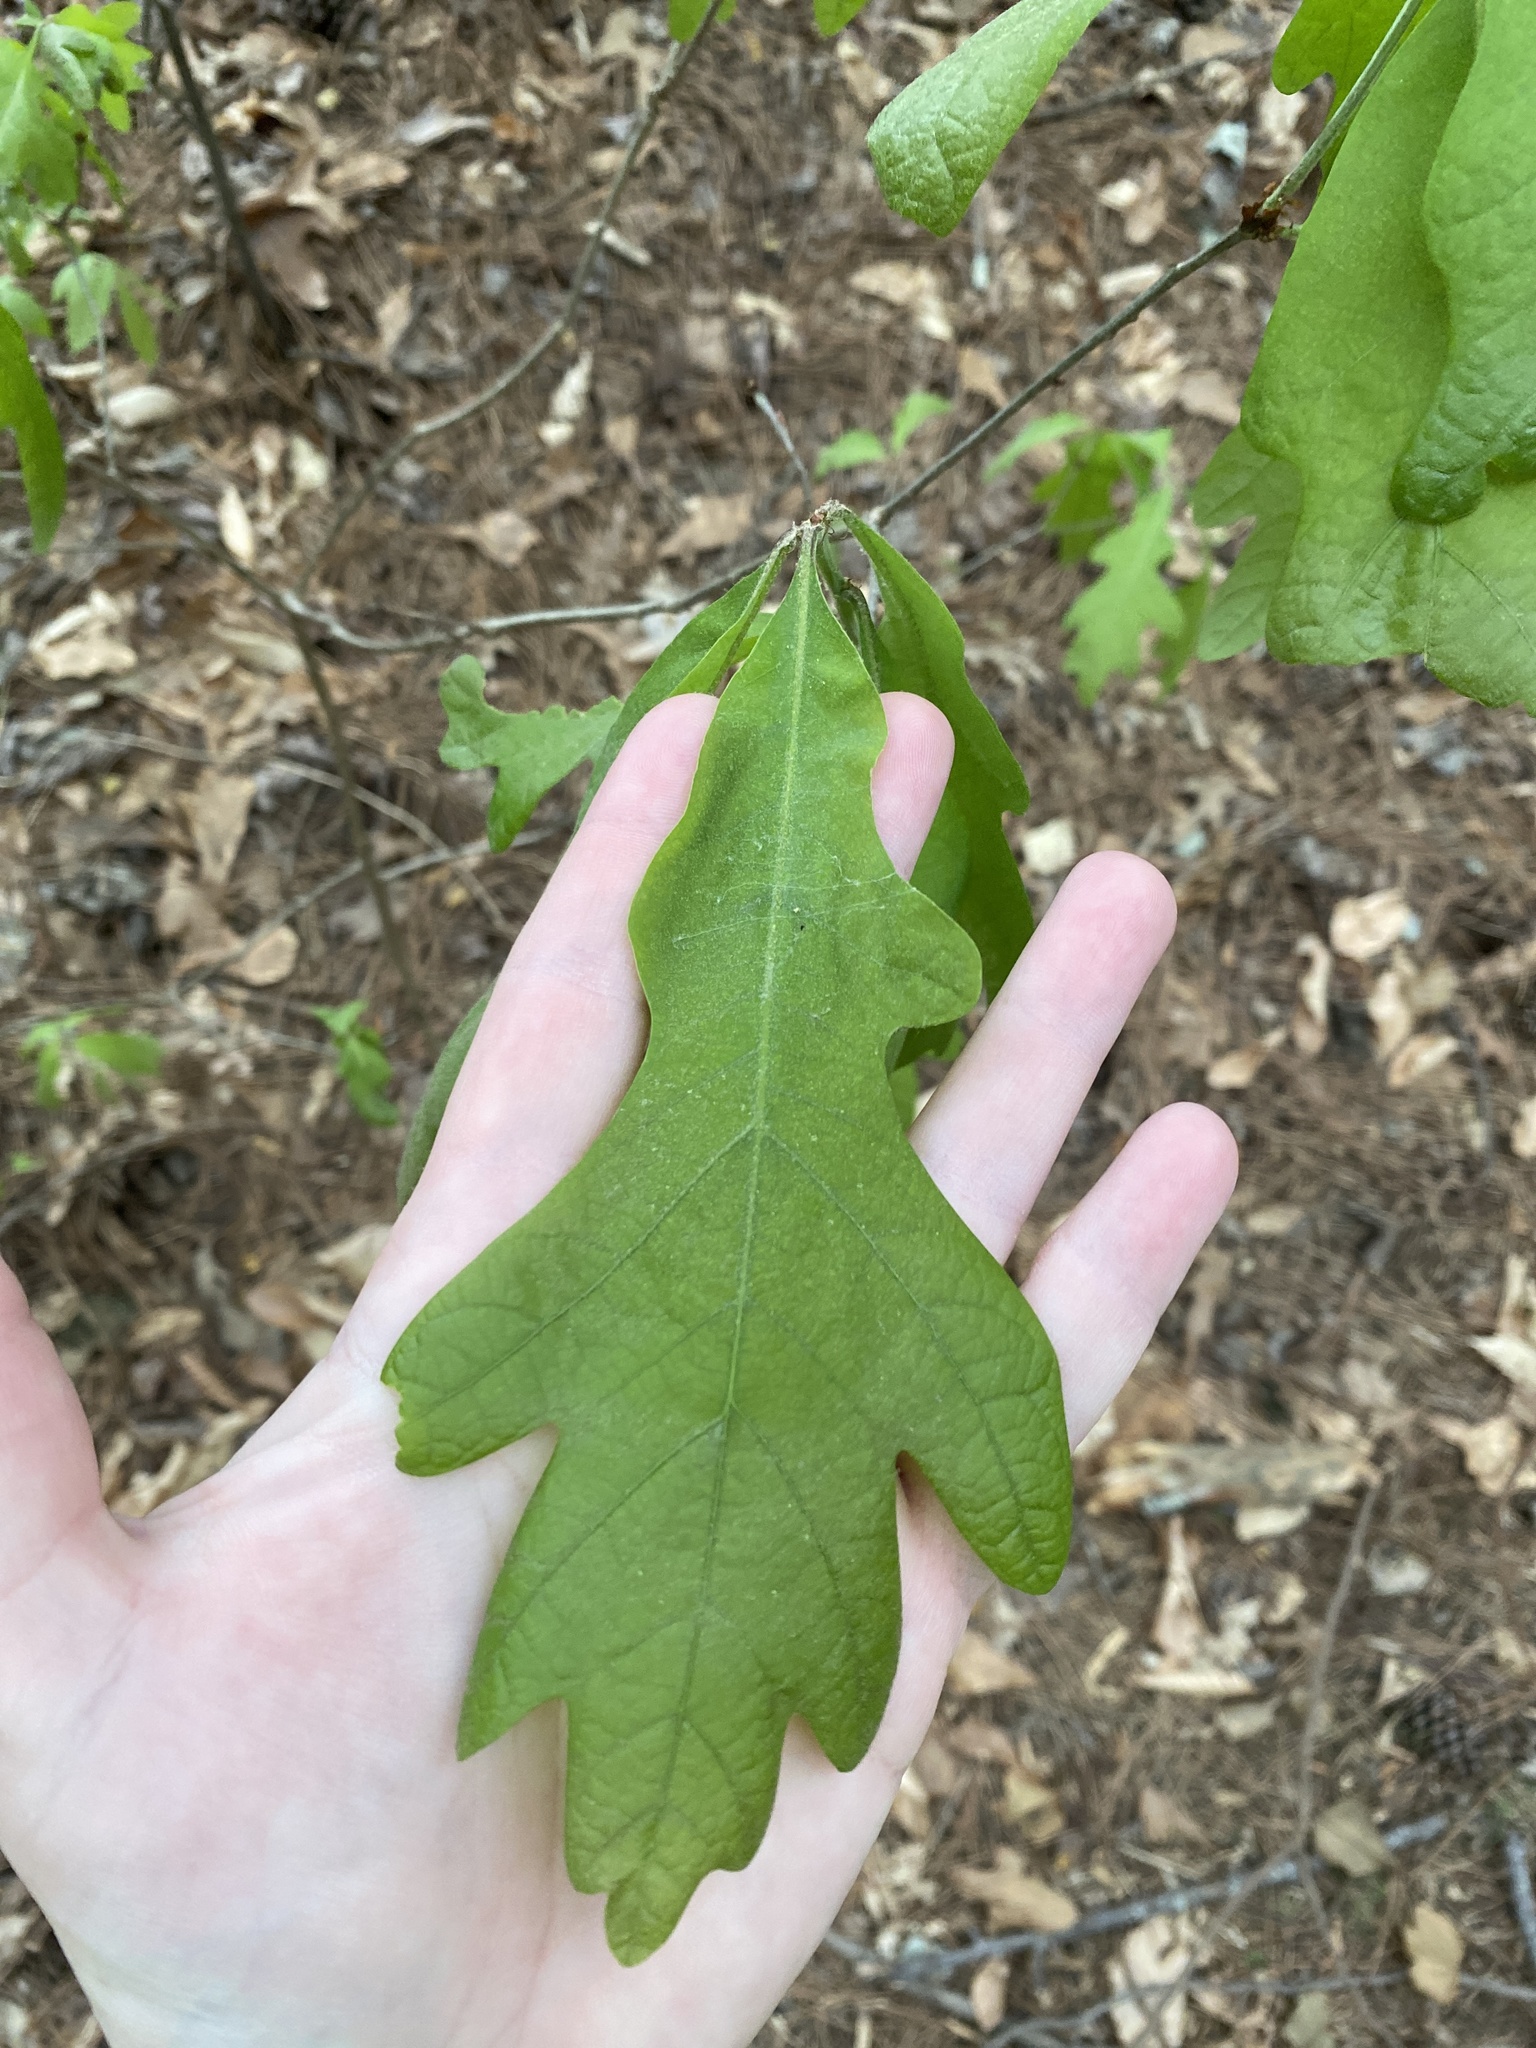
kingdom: Plantae
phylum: Tracheophyta
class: Magnoliopsida
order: Fagales
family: Fagaceae
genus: Quercus
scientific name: Quercus alba
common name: White oak
